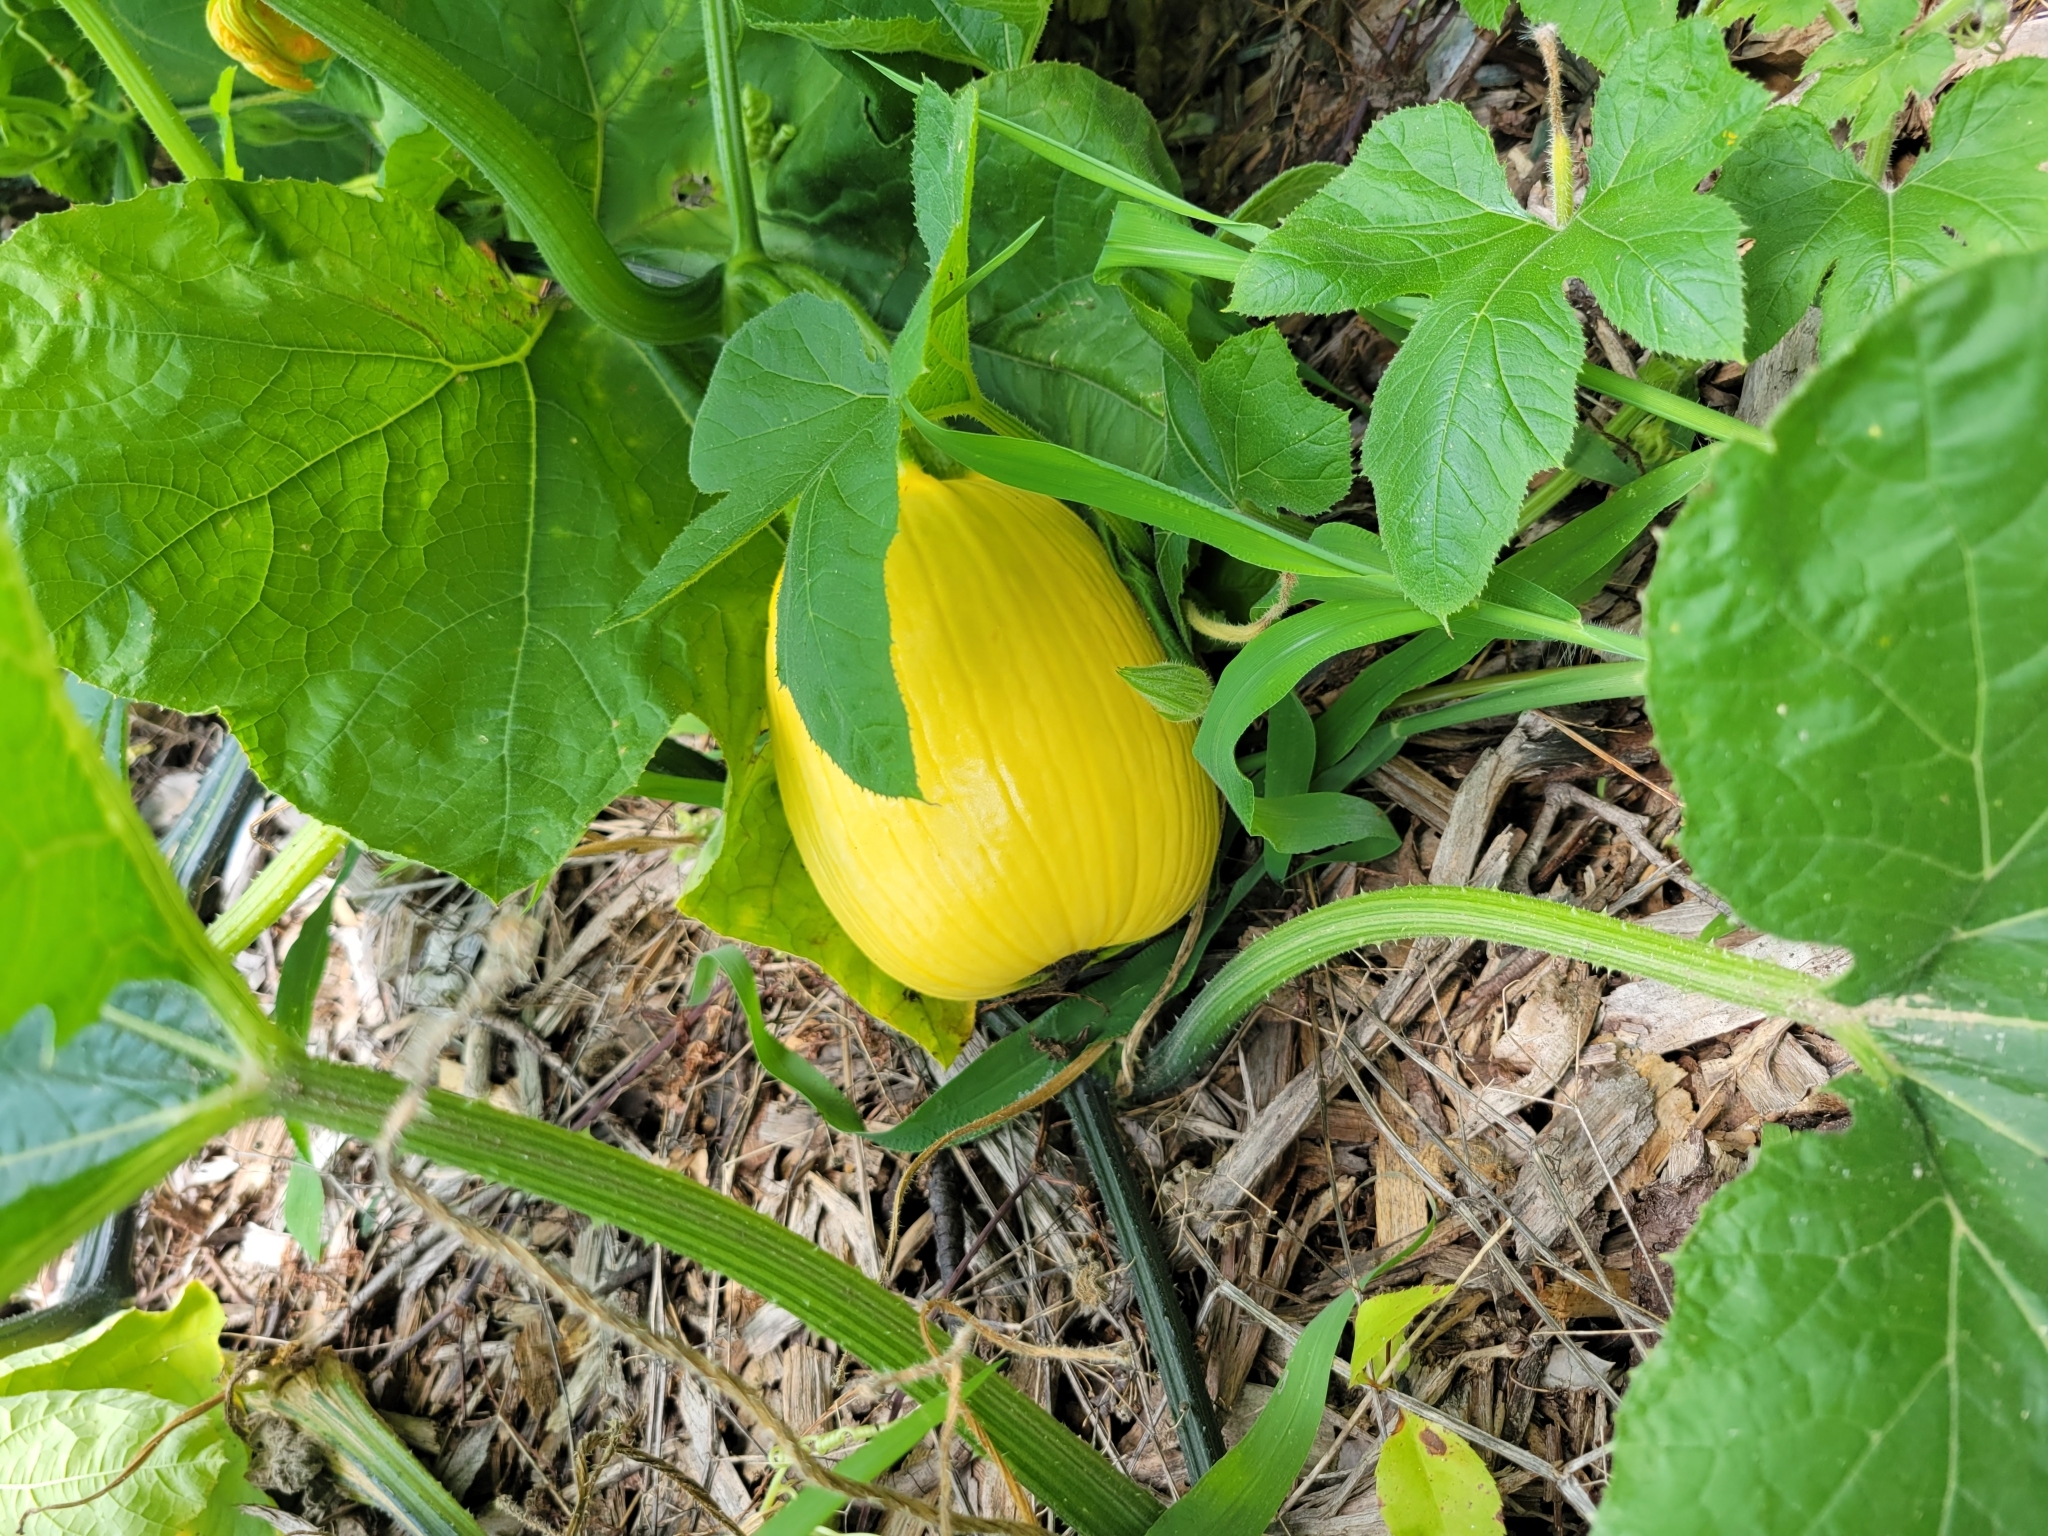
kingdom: Plantae
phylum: Tracheophyta
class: Magnoliopsida
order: Cucurbitales
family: Cucurbitaceae
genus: Cucurbita
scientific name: Cucurbita pepo
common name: Marrow
